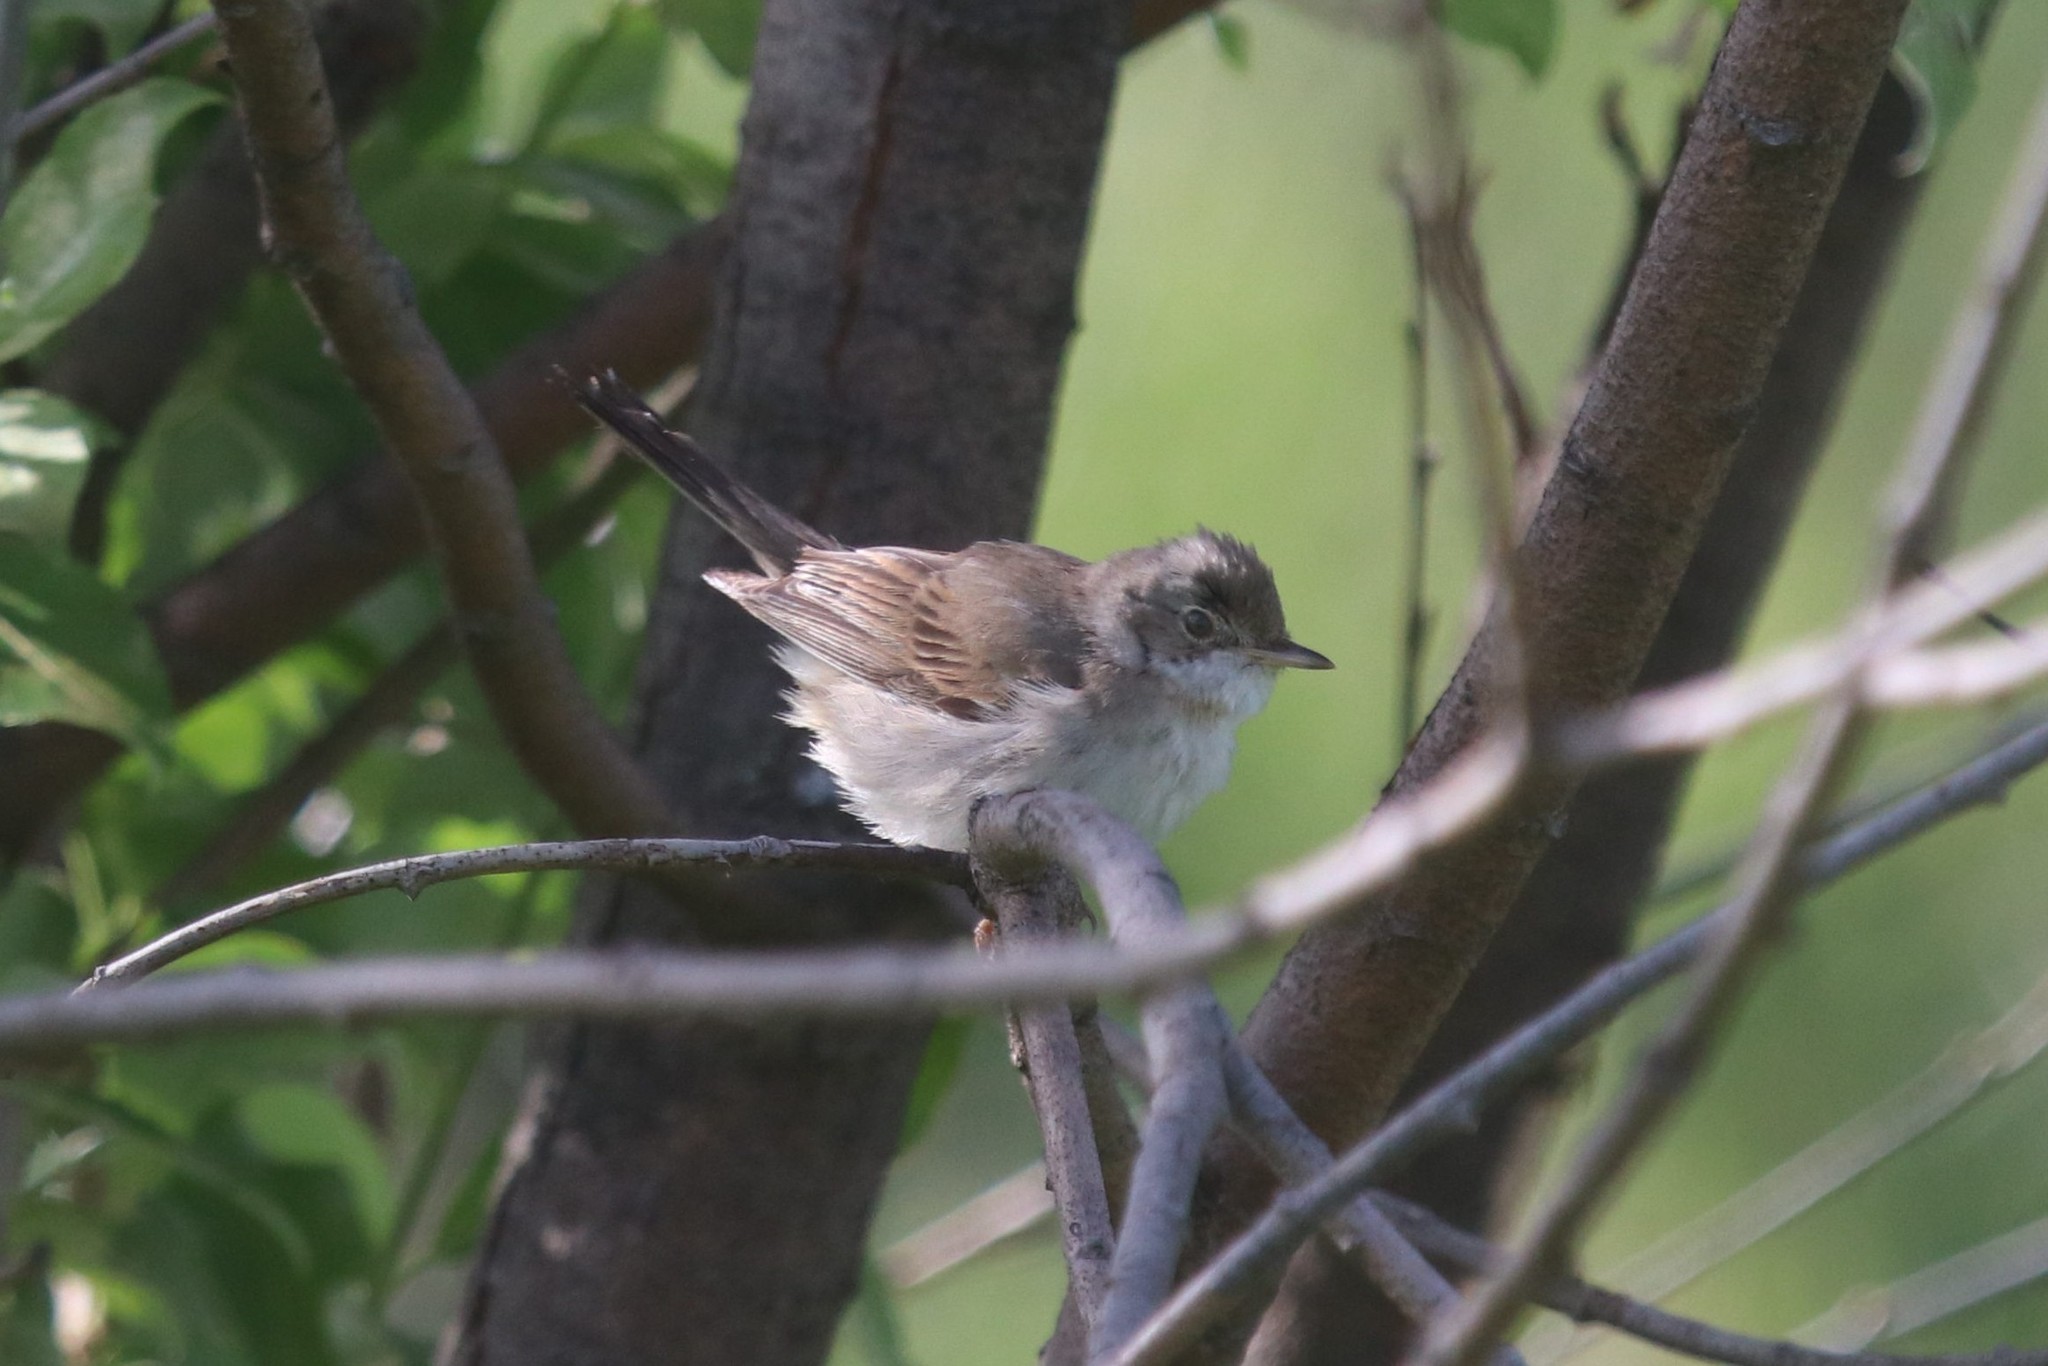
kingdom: Animalia
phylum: Chordata
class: Aves
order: Passeriformes
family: Sylviidae
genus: Sylvia
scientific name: Sylvia communis
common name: Common whitethroat
